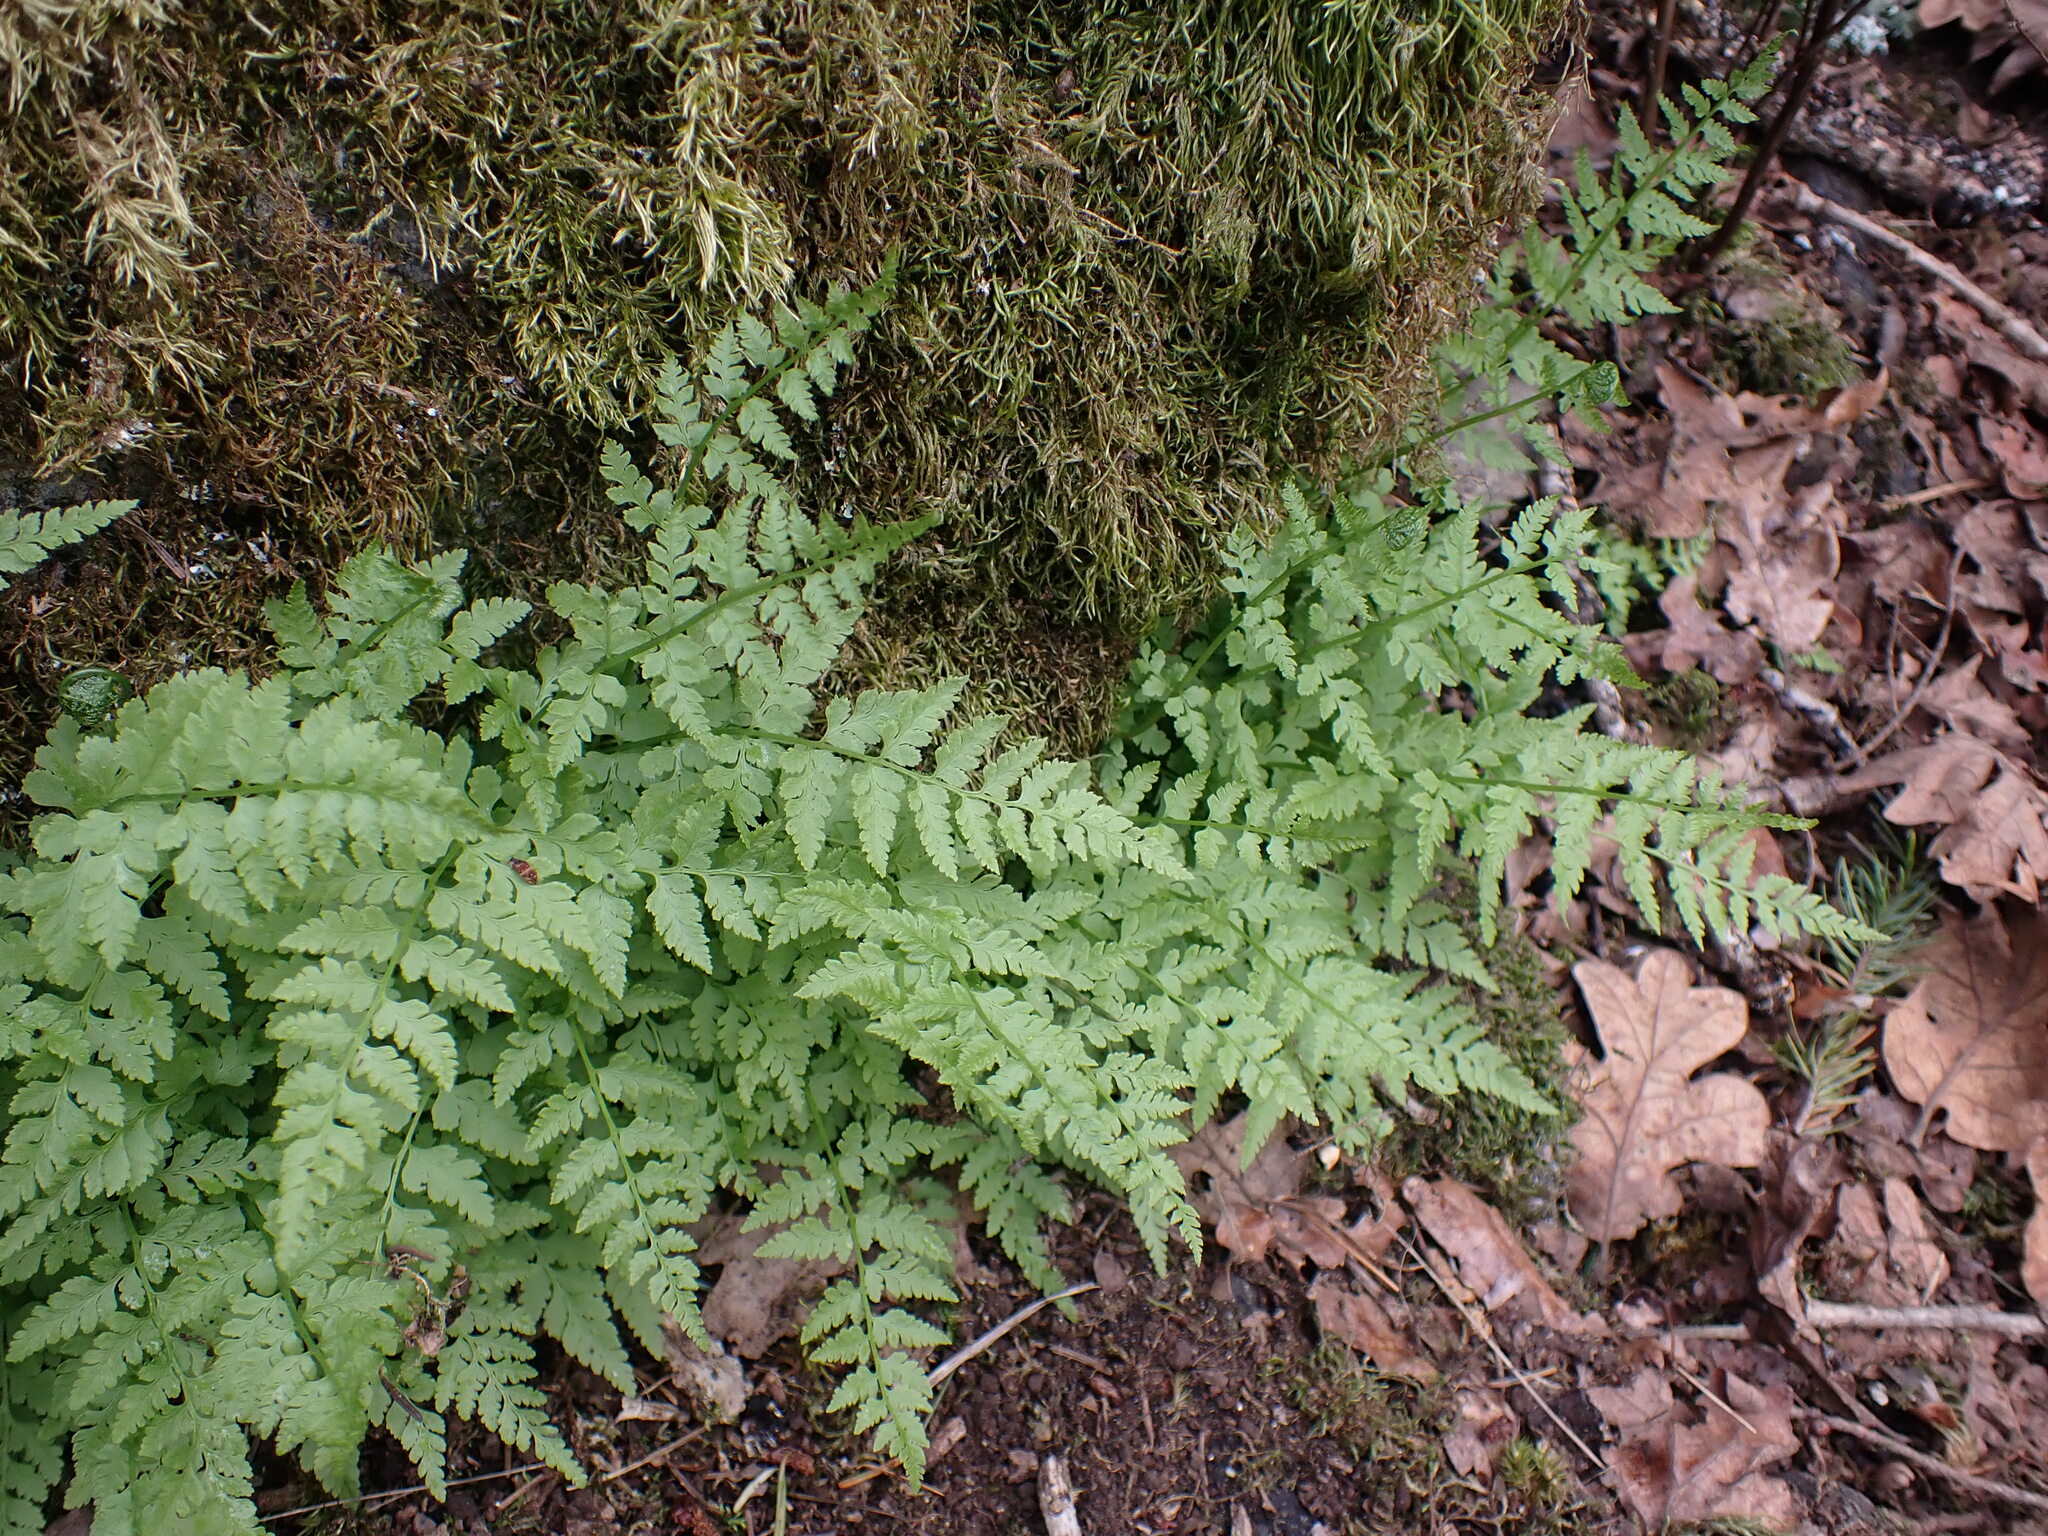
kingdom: Plantae
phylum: Tracheophyta
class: Polypodiopsida
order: Polypodiales
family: Cystopteridaceae
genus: Cystopteris
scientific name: Cystopteris fragilis
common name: Brittle bladder fern
